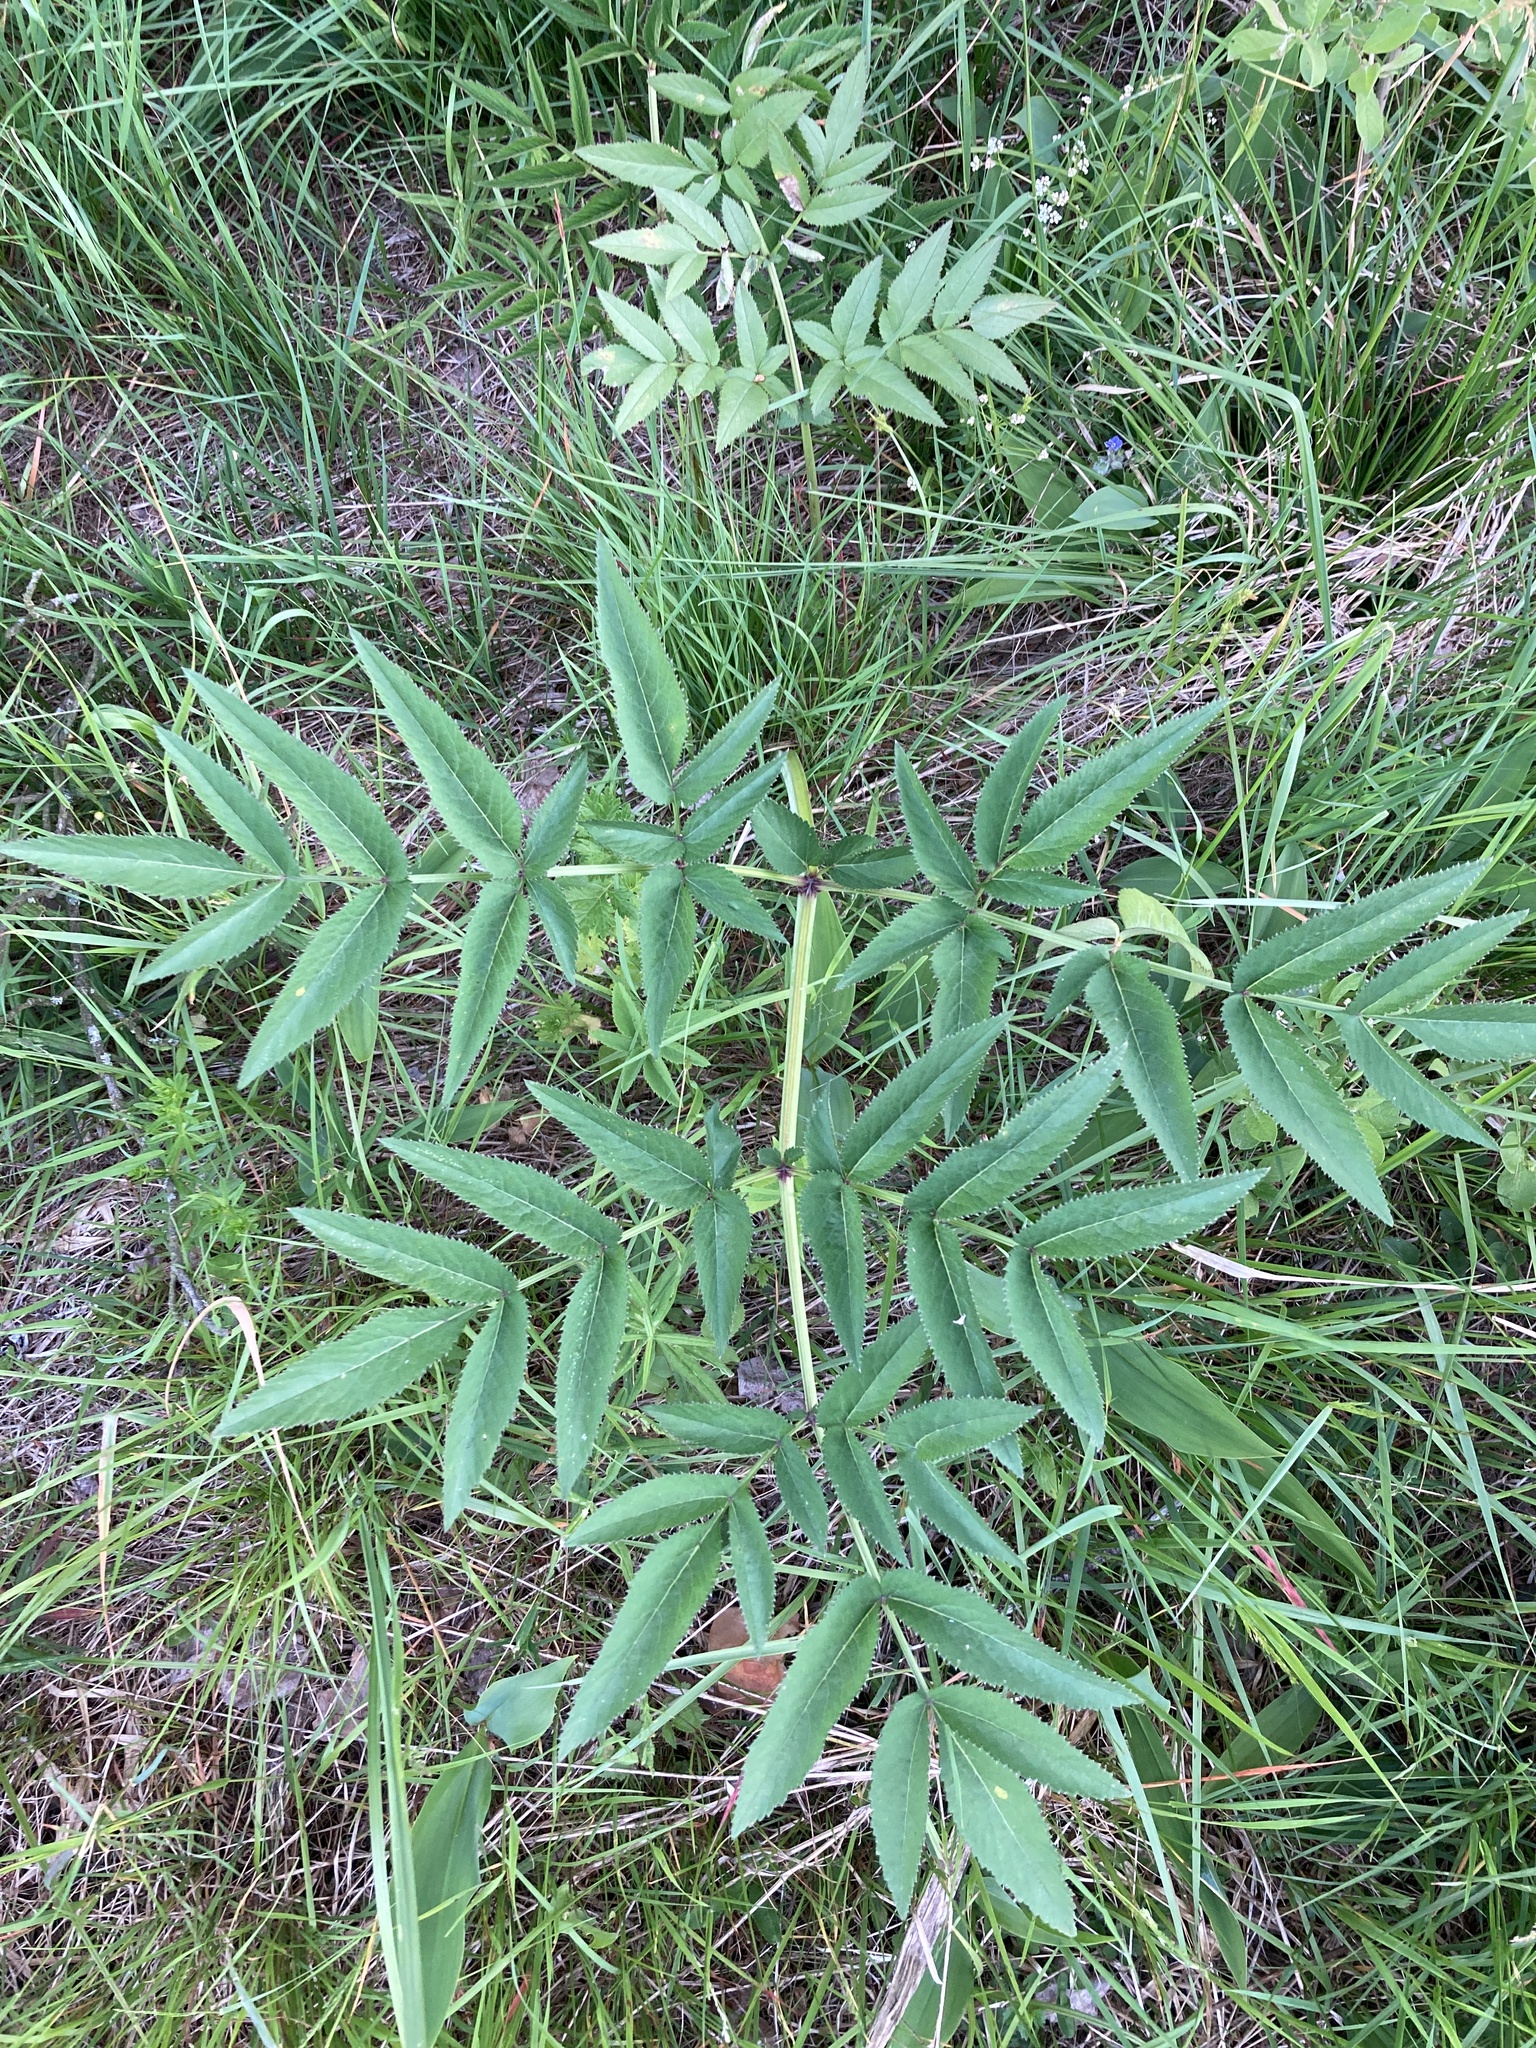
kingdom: Plantae
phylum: Tracheophyta
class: Magnoliopsida
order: Apiales
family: Apiaceae
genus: Angelica
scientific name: Angelica sylvestris
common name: Wild angelica
